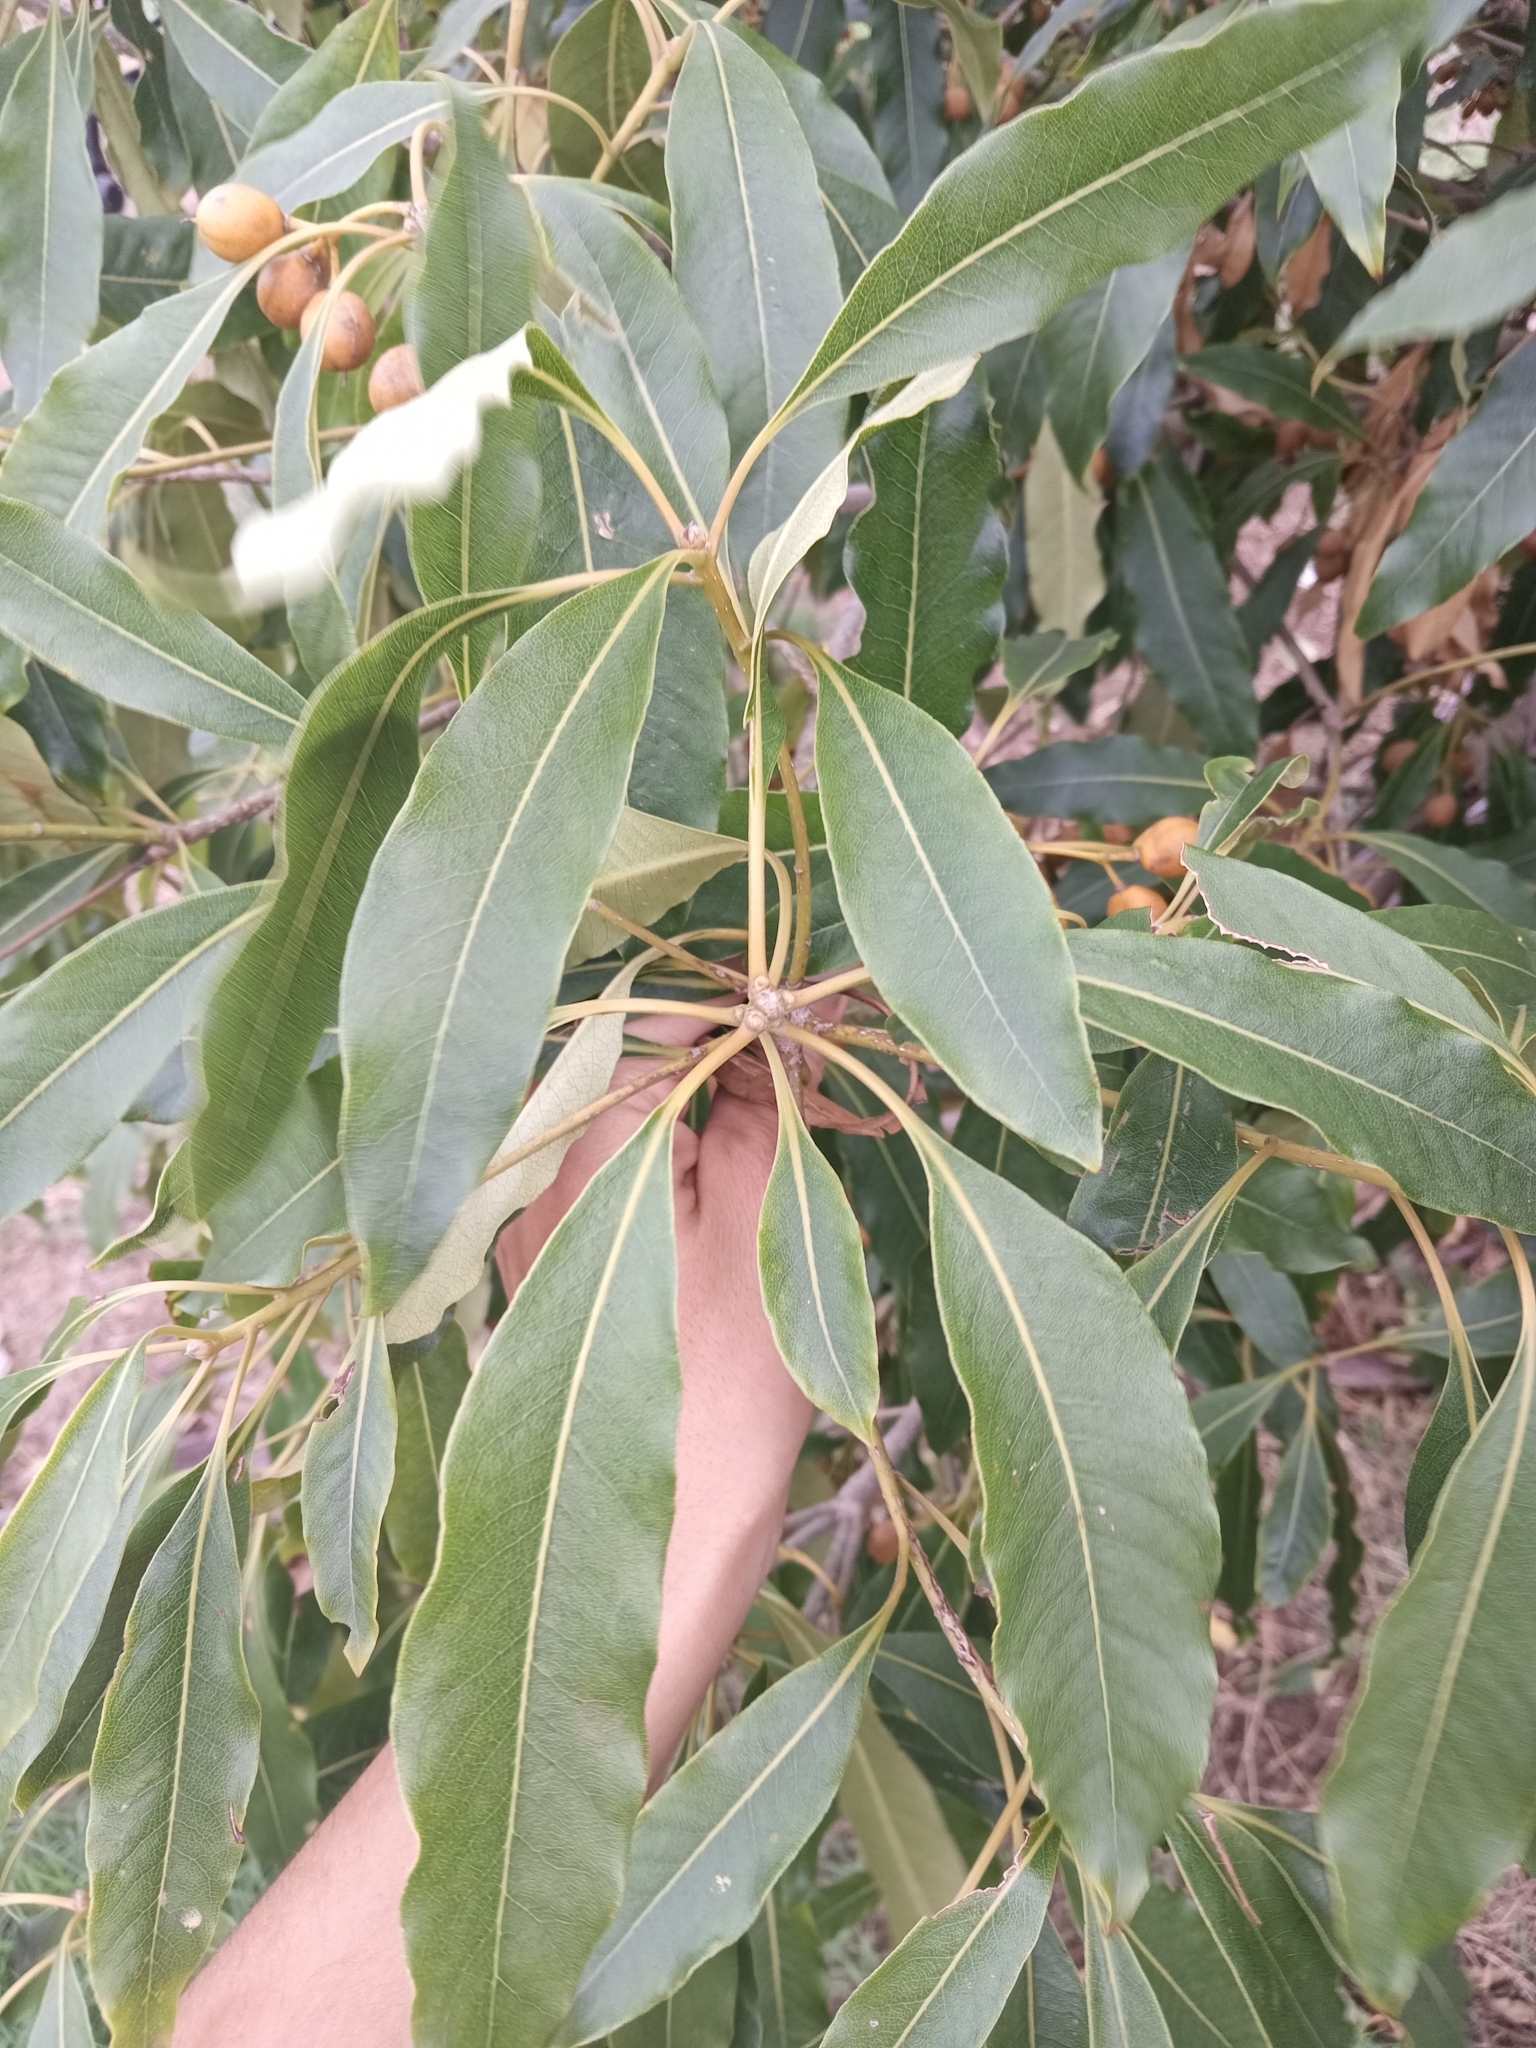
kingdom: Plantae
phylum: Tracheophyta
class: Magnoliopsida
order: Apiales
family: Pittosporaceae
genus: Pittosporum
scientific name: Pittosporum undulatum
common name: Australian cheesewood
